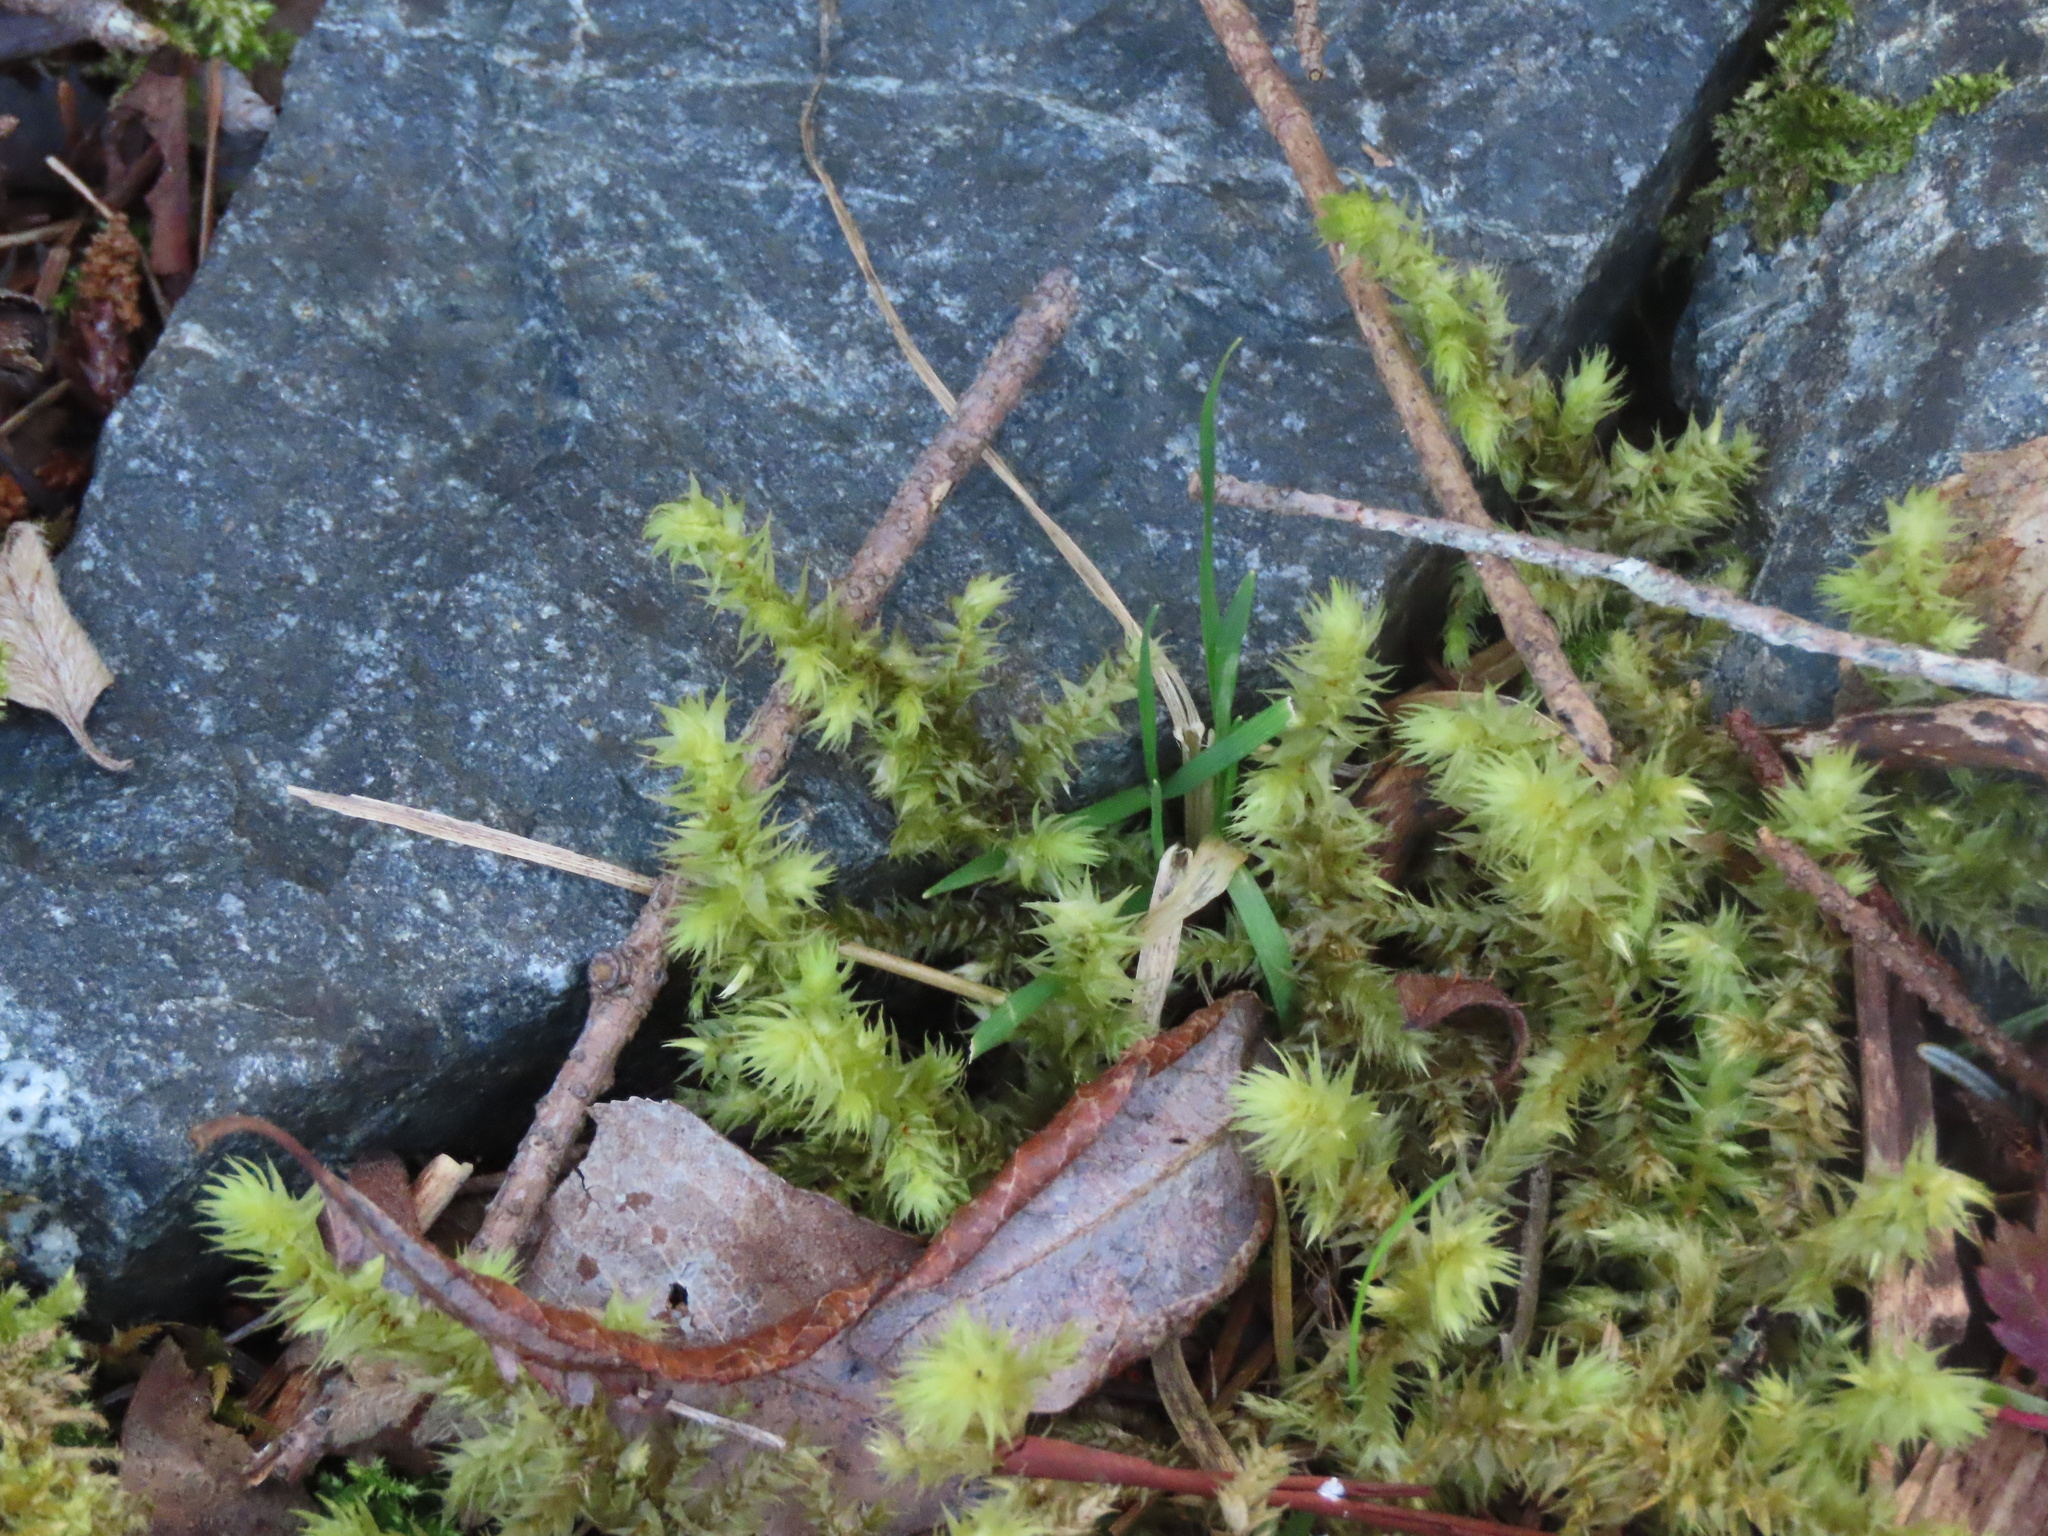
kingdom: Plantae
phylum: Bryophyta
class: Bryopsida
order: Hypnales
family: Hylocomiaceae
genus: Hylocomiadelphus
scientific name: Hylocomiadelphus triquetrus
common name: Rough goose neck moss
